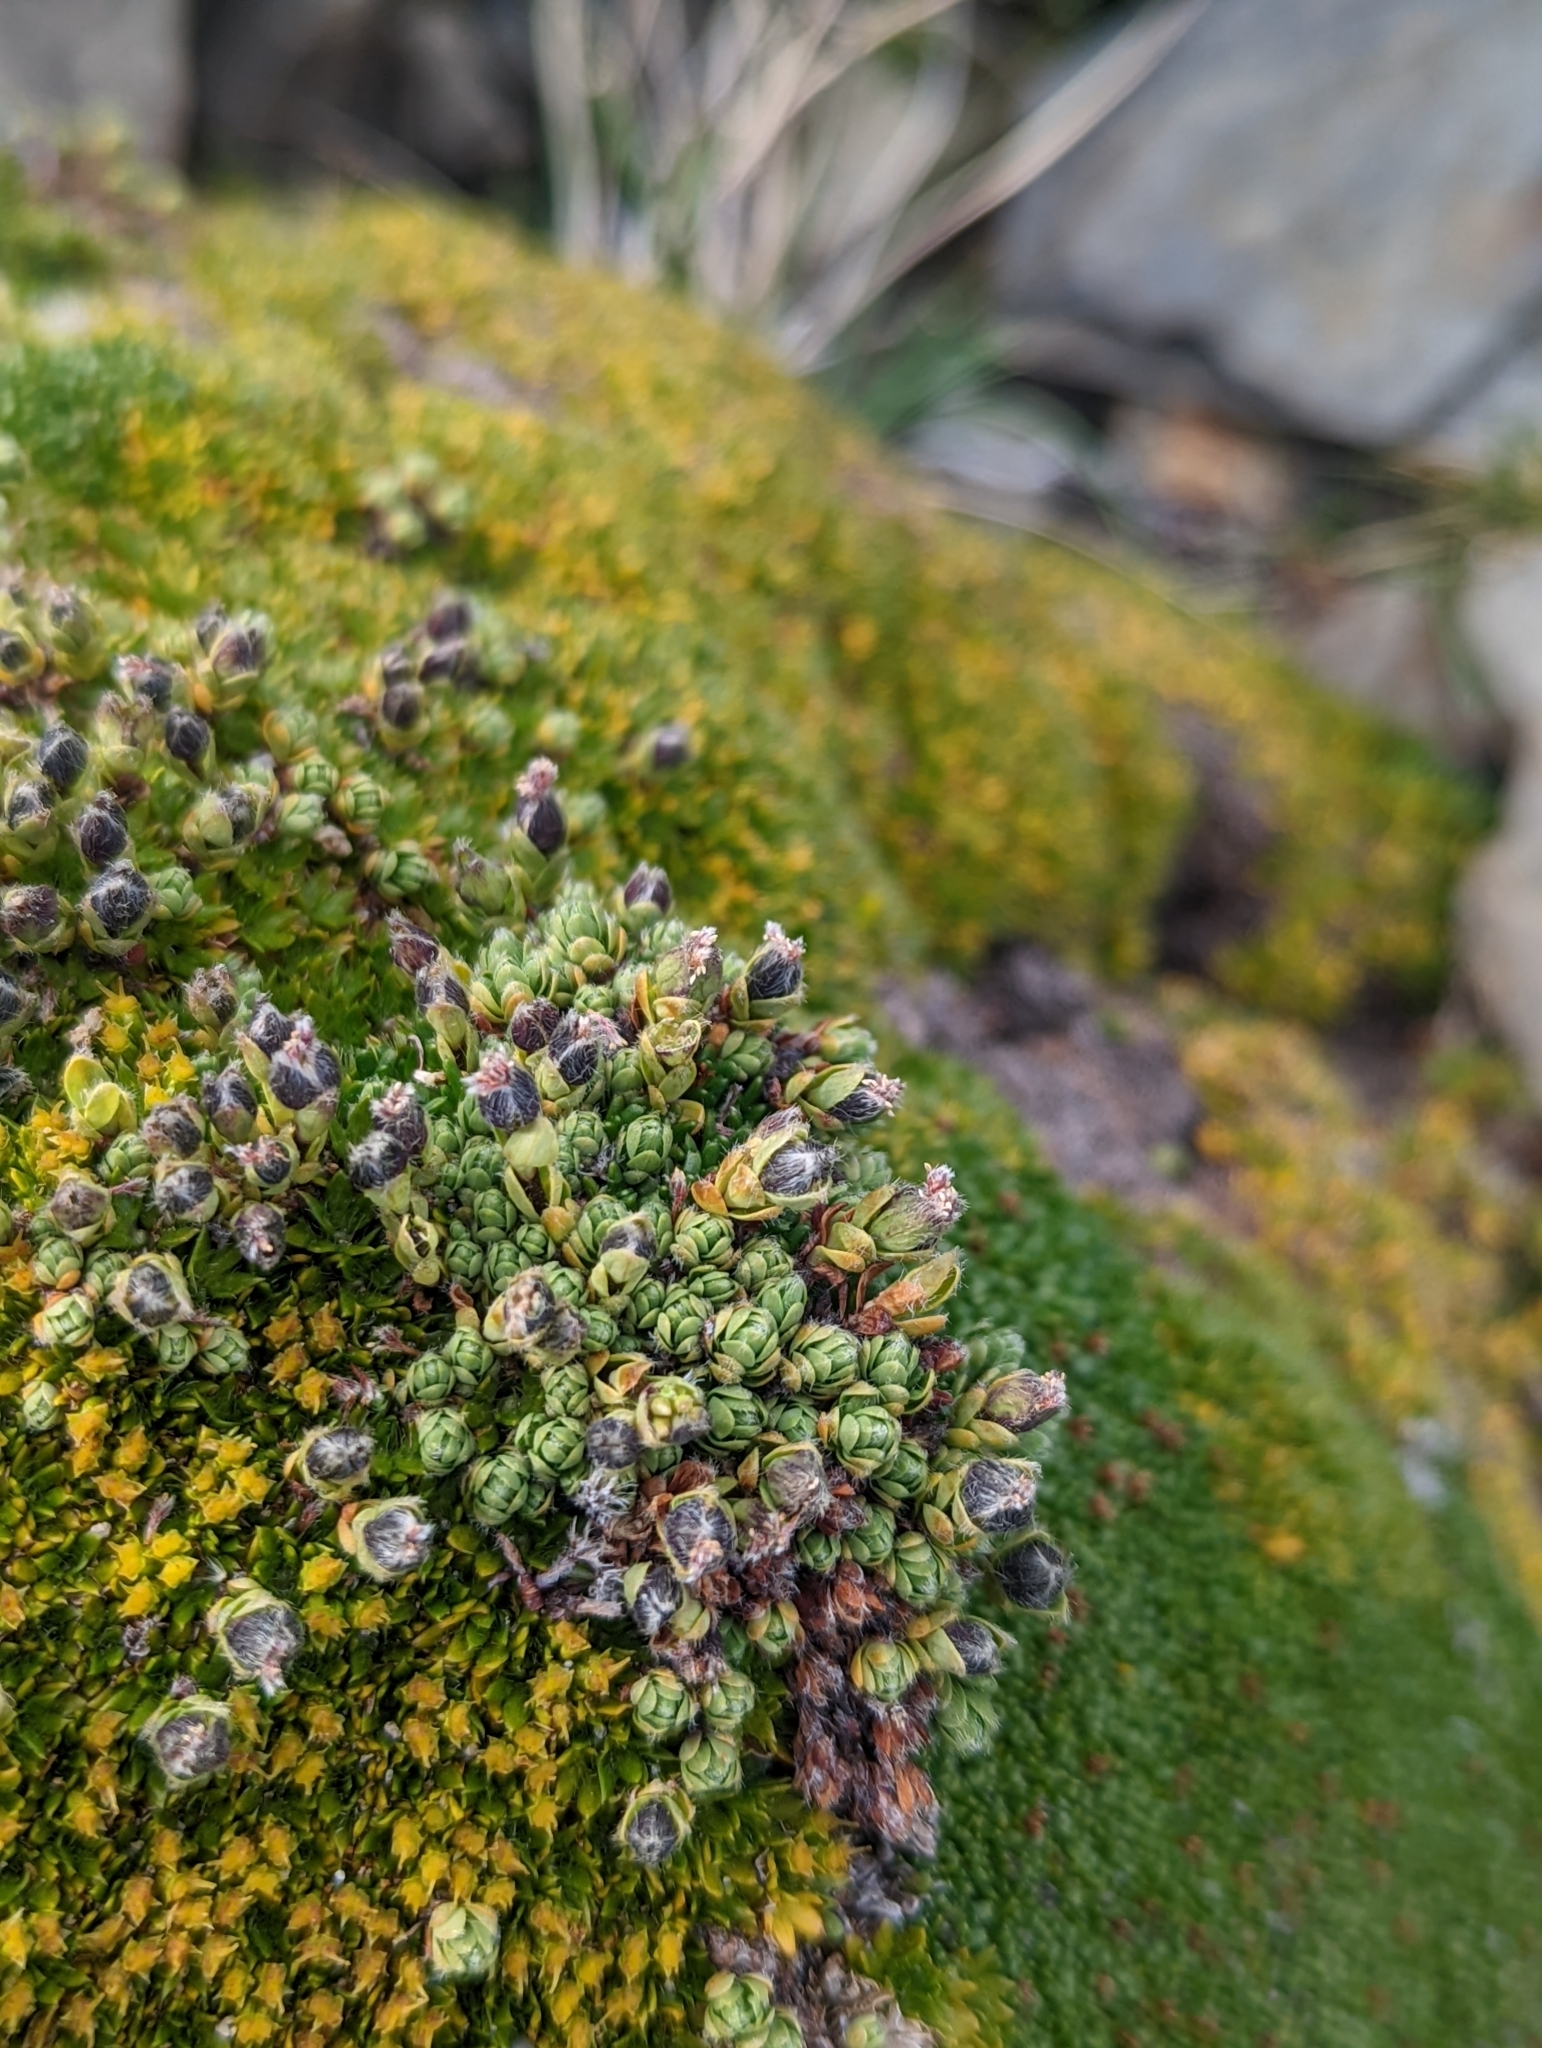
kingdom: Plantae
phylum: Tracheophyta
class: Magnoliopsida
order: Malvales
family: Thymelaeaceae
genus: Drapetes
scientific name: Drapetes muscosus
